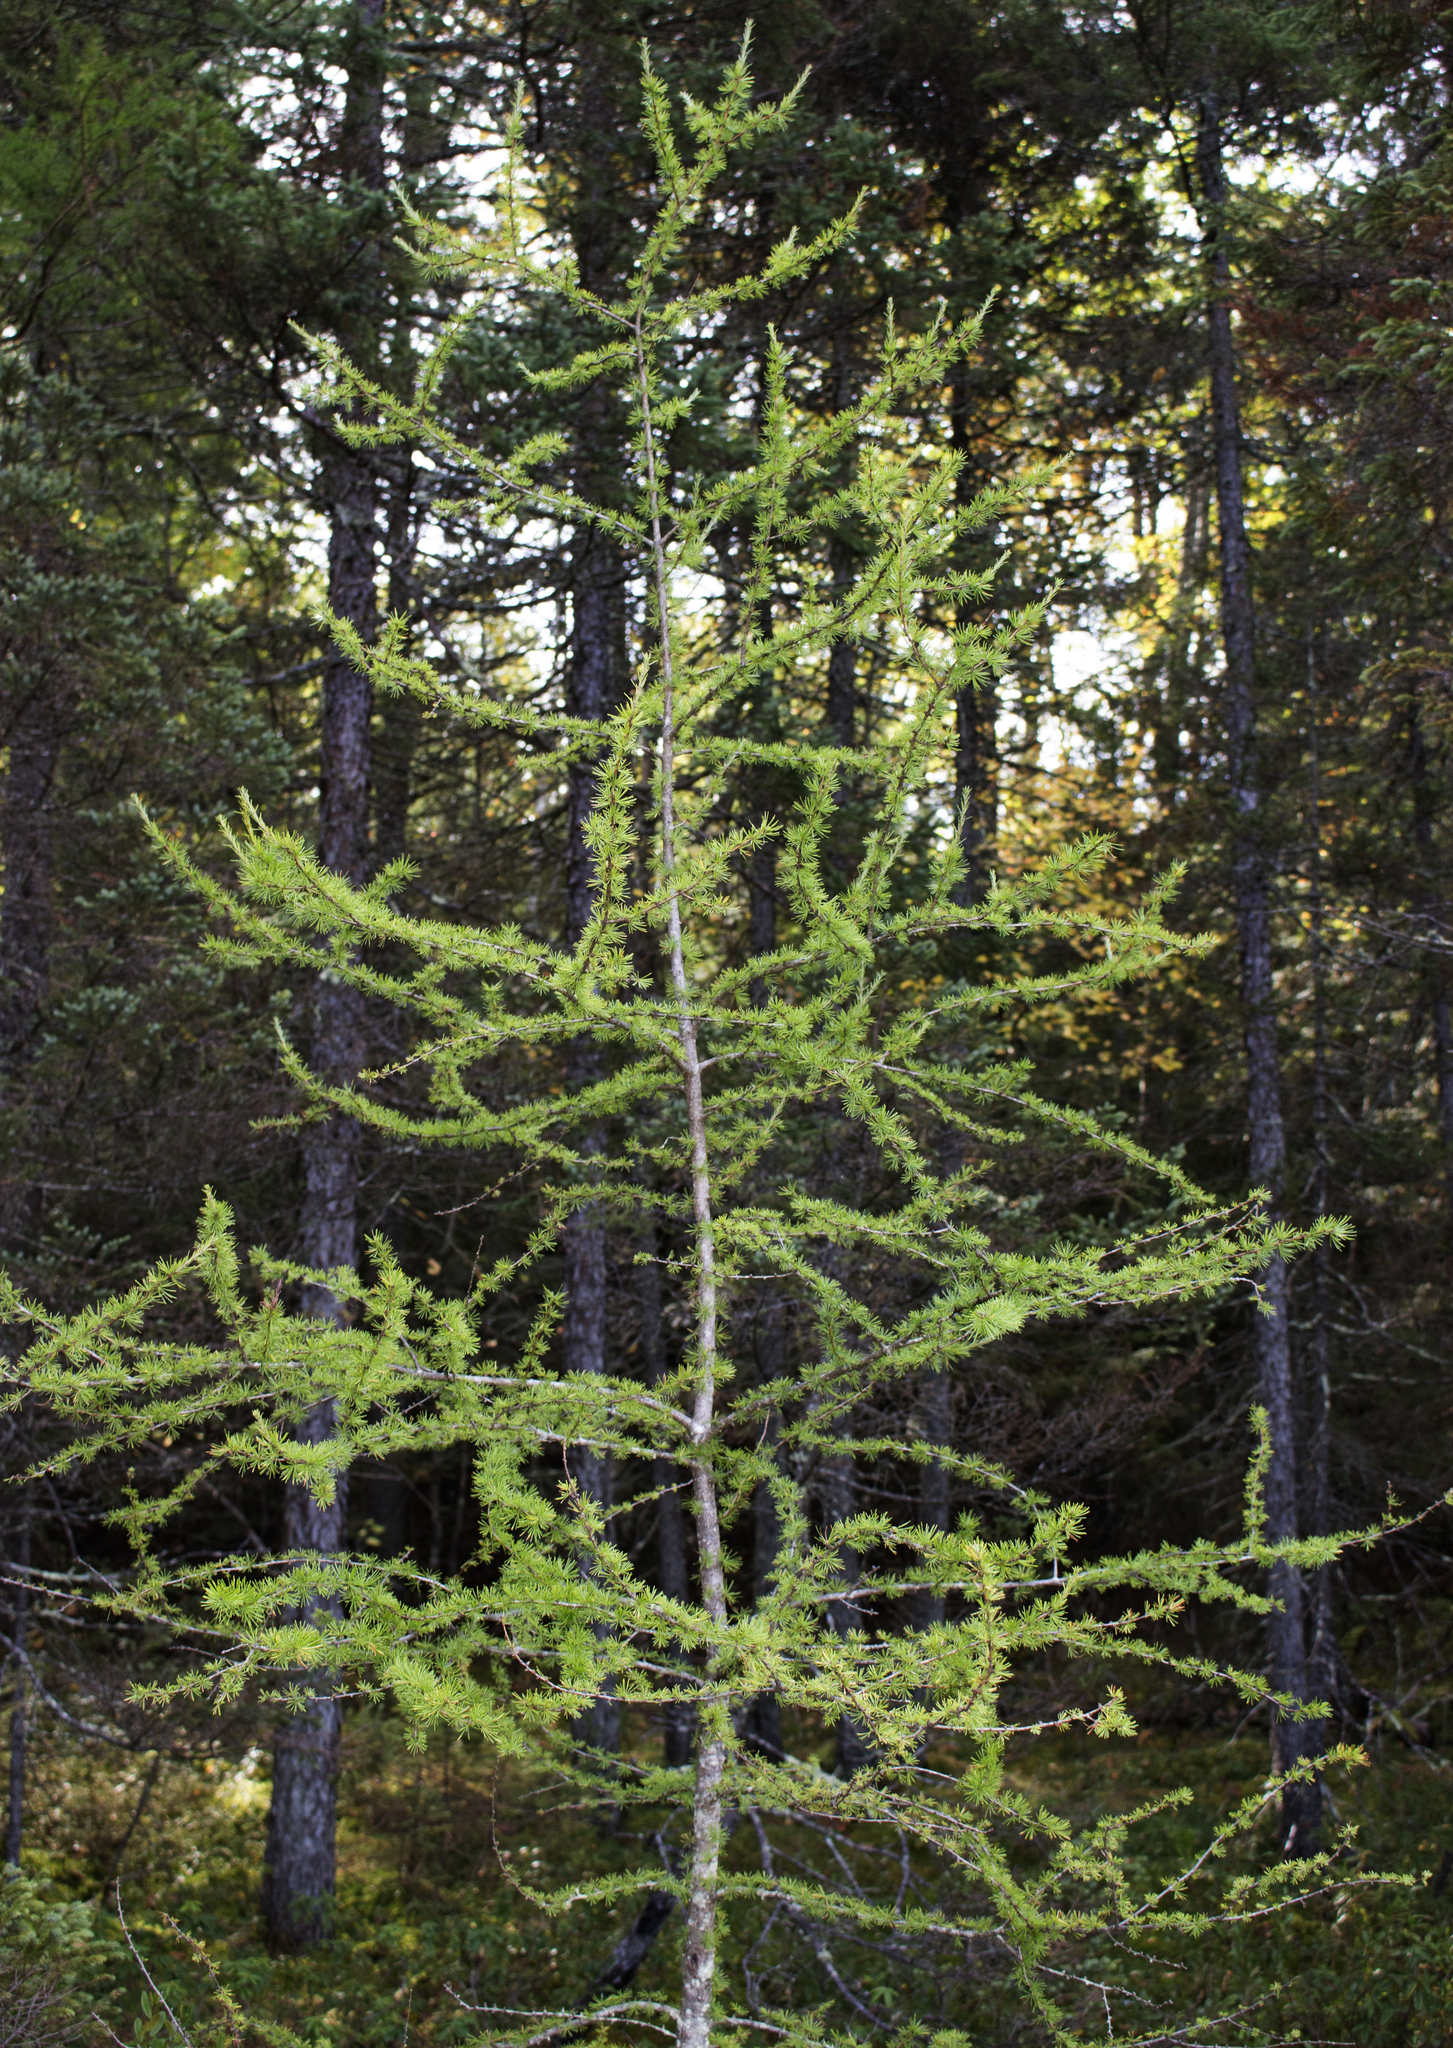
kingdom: Plantae
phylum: Tracheophyta
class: Pinopsida
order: Pinales
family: Pinaceae
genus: Larix
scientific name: Larix laricina
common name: American larch
